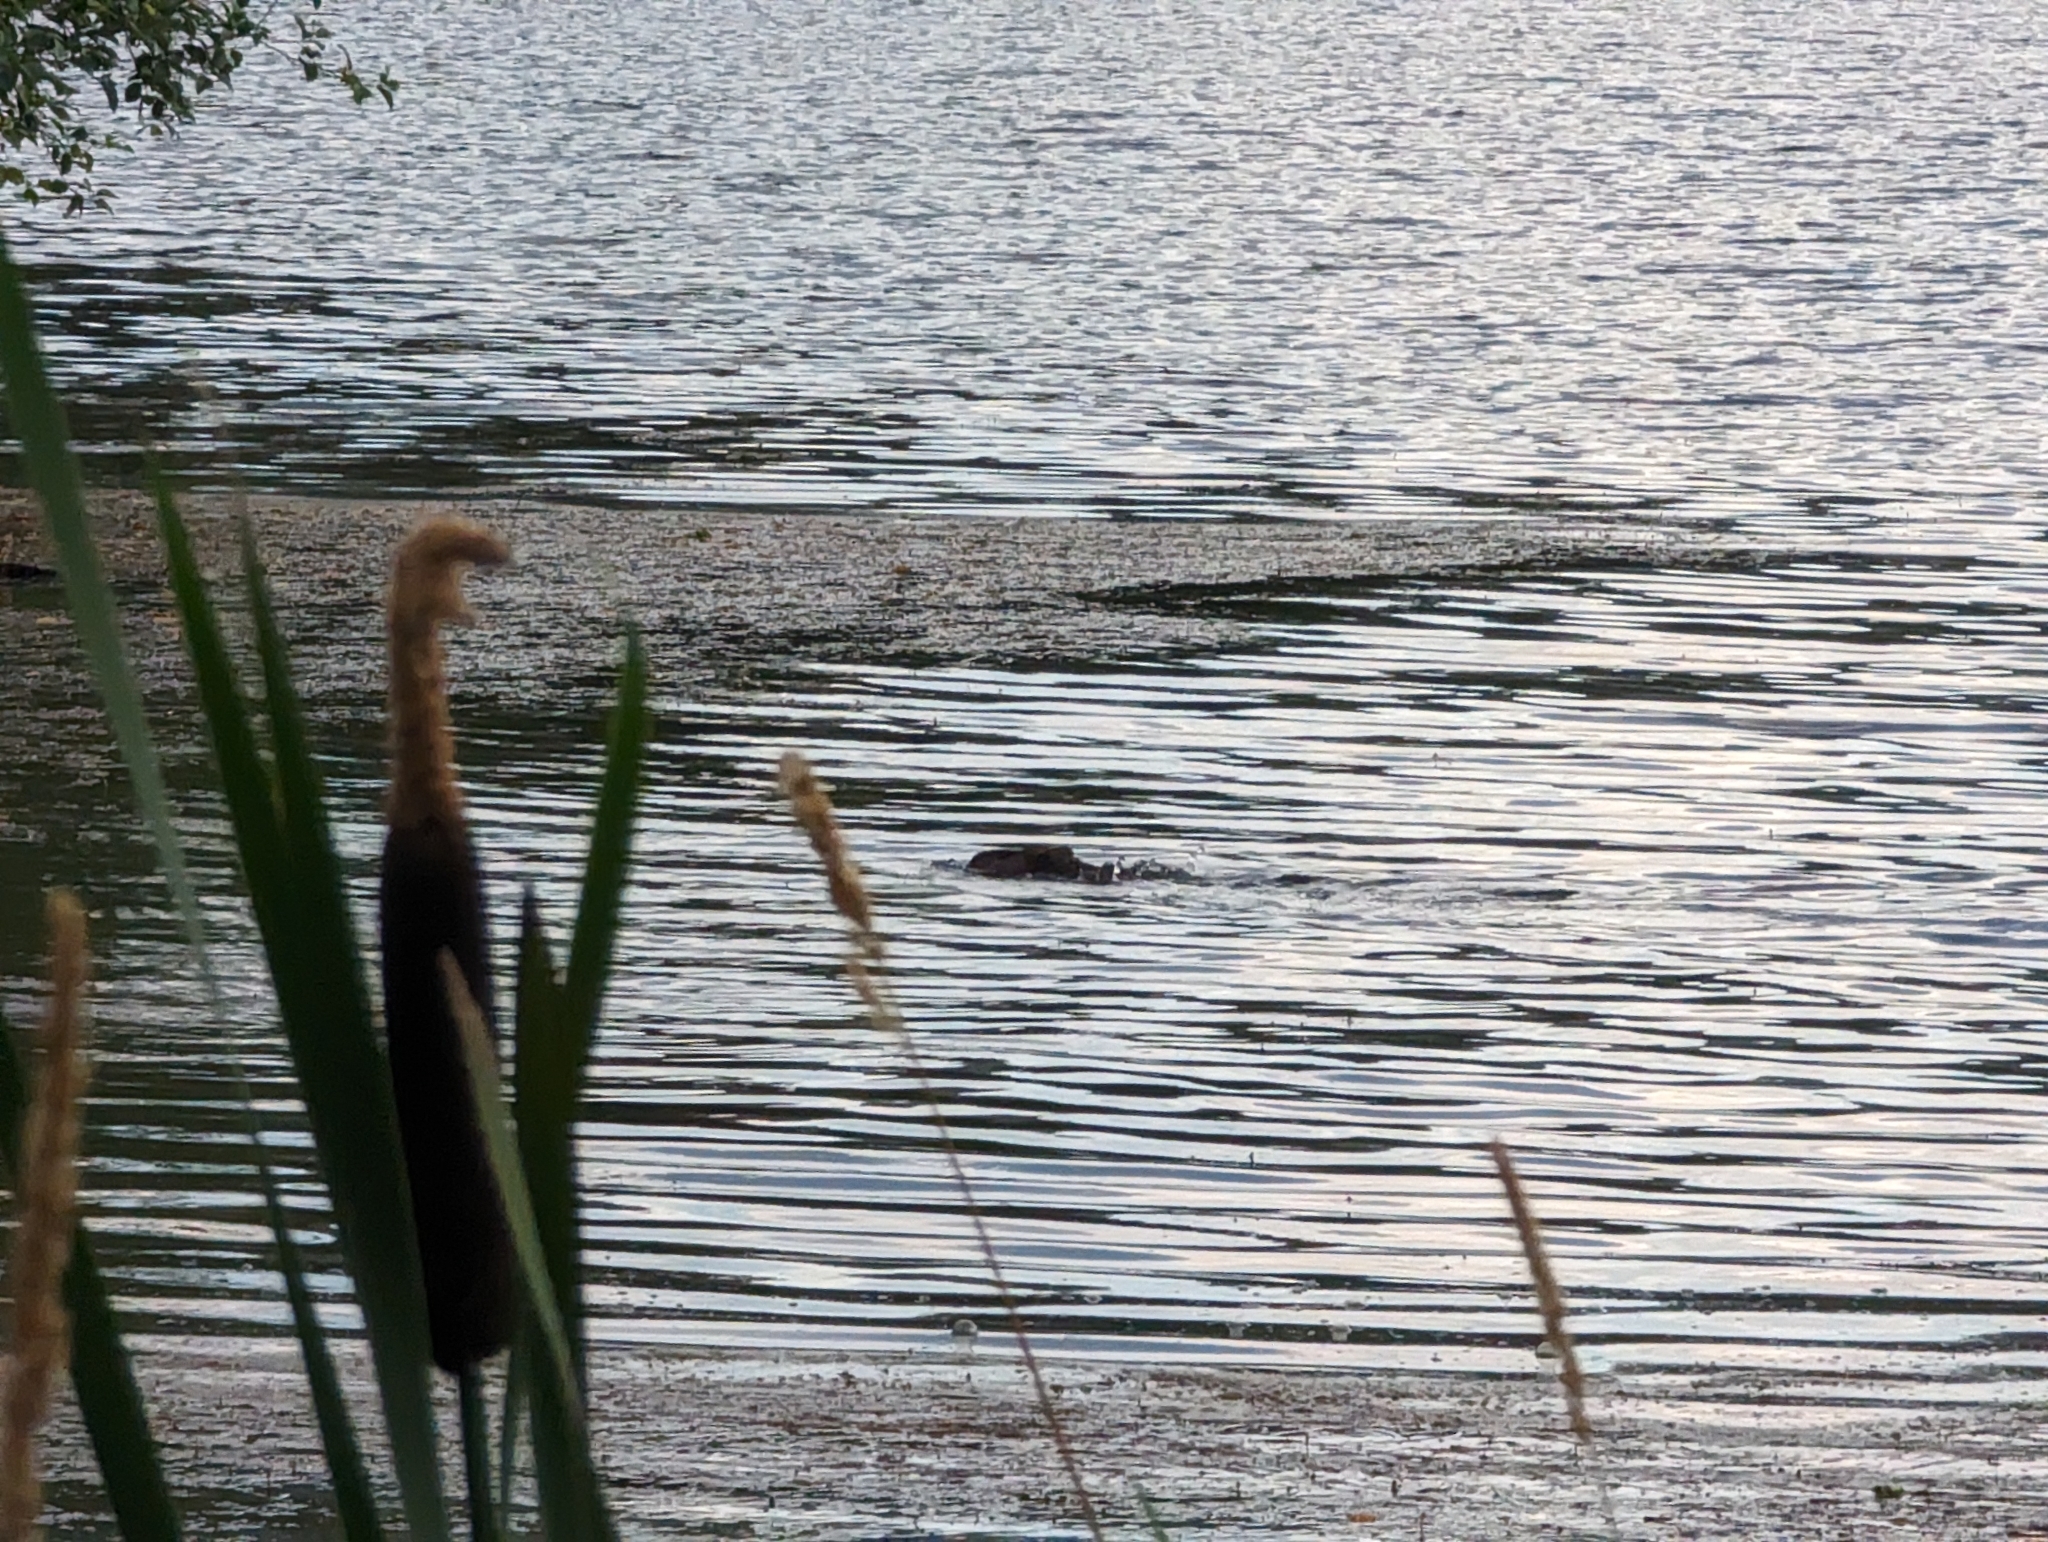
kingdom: Animalia
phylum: Chordata
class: Mammalia
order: Rodentia
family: Castoridae
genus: Castor
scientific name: Castor canadensis
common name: American beaver
